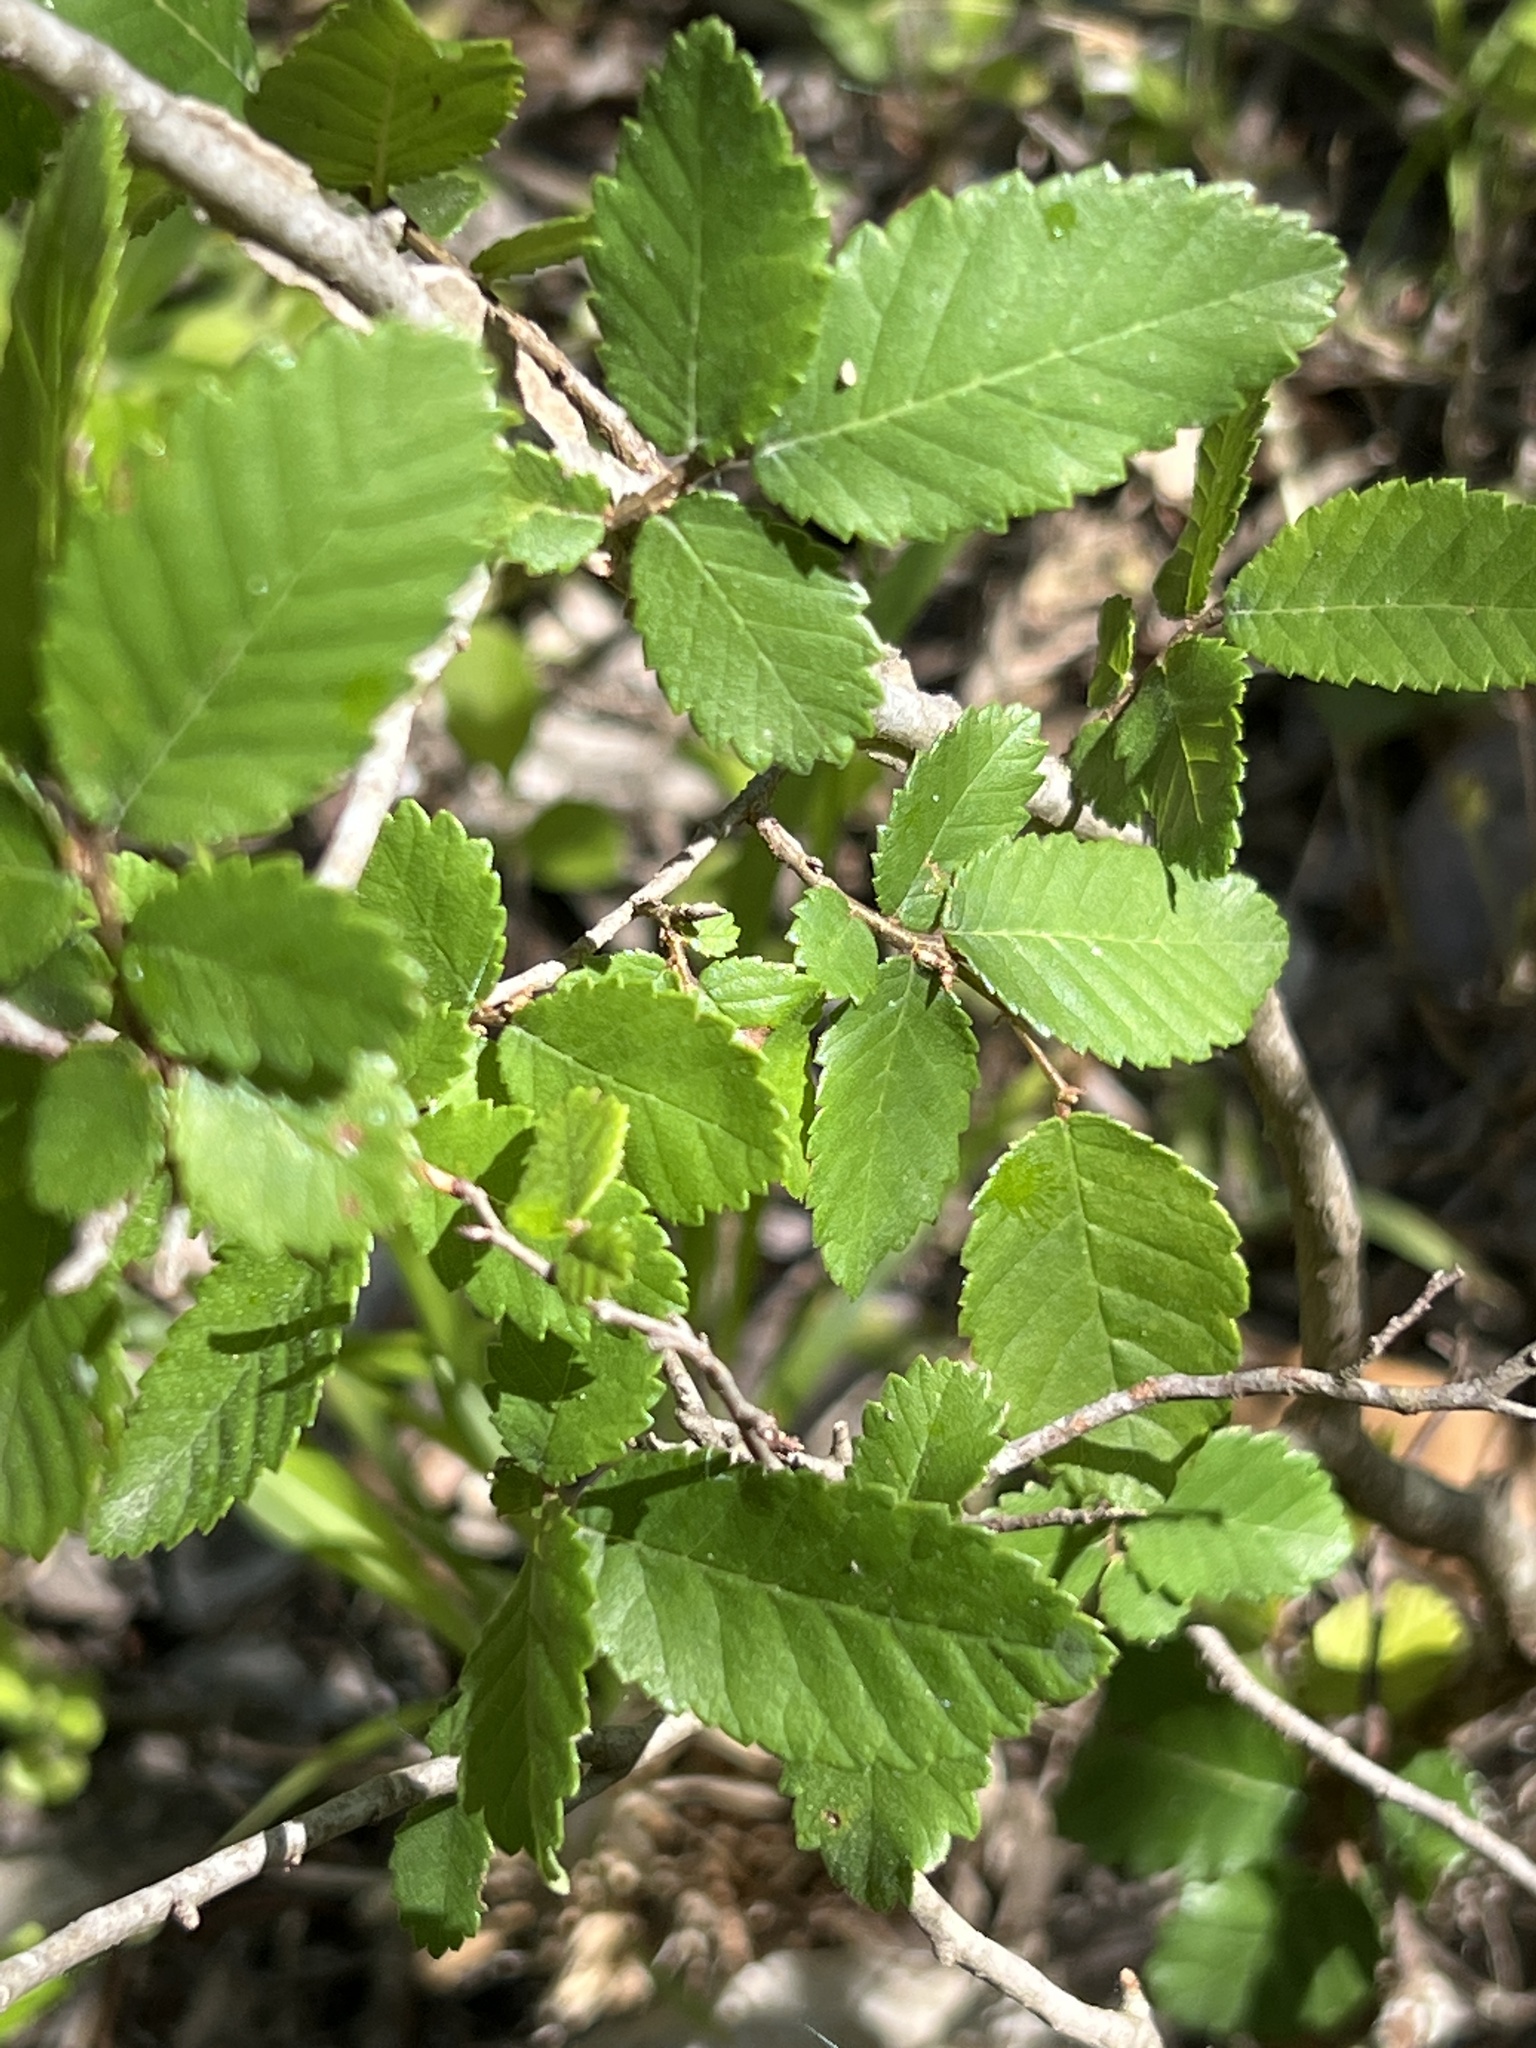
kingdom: Plantae
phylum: Tracheophyta
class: Magnoliopsida
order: Rosales
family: Ulmaceae
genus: Ulmus
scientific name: Ulmus crassifolia
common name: Basket elm
